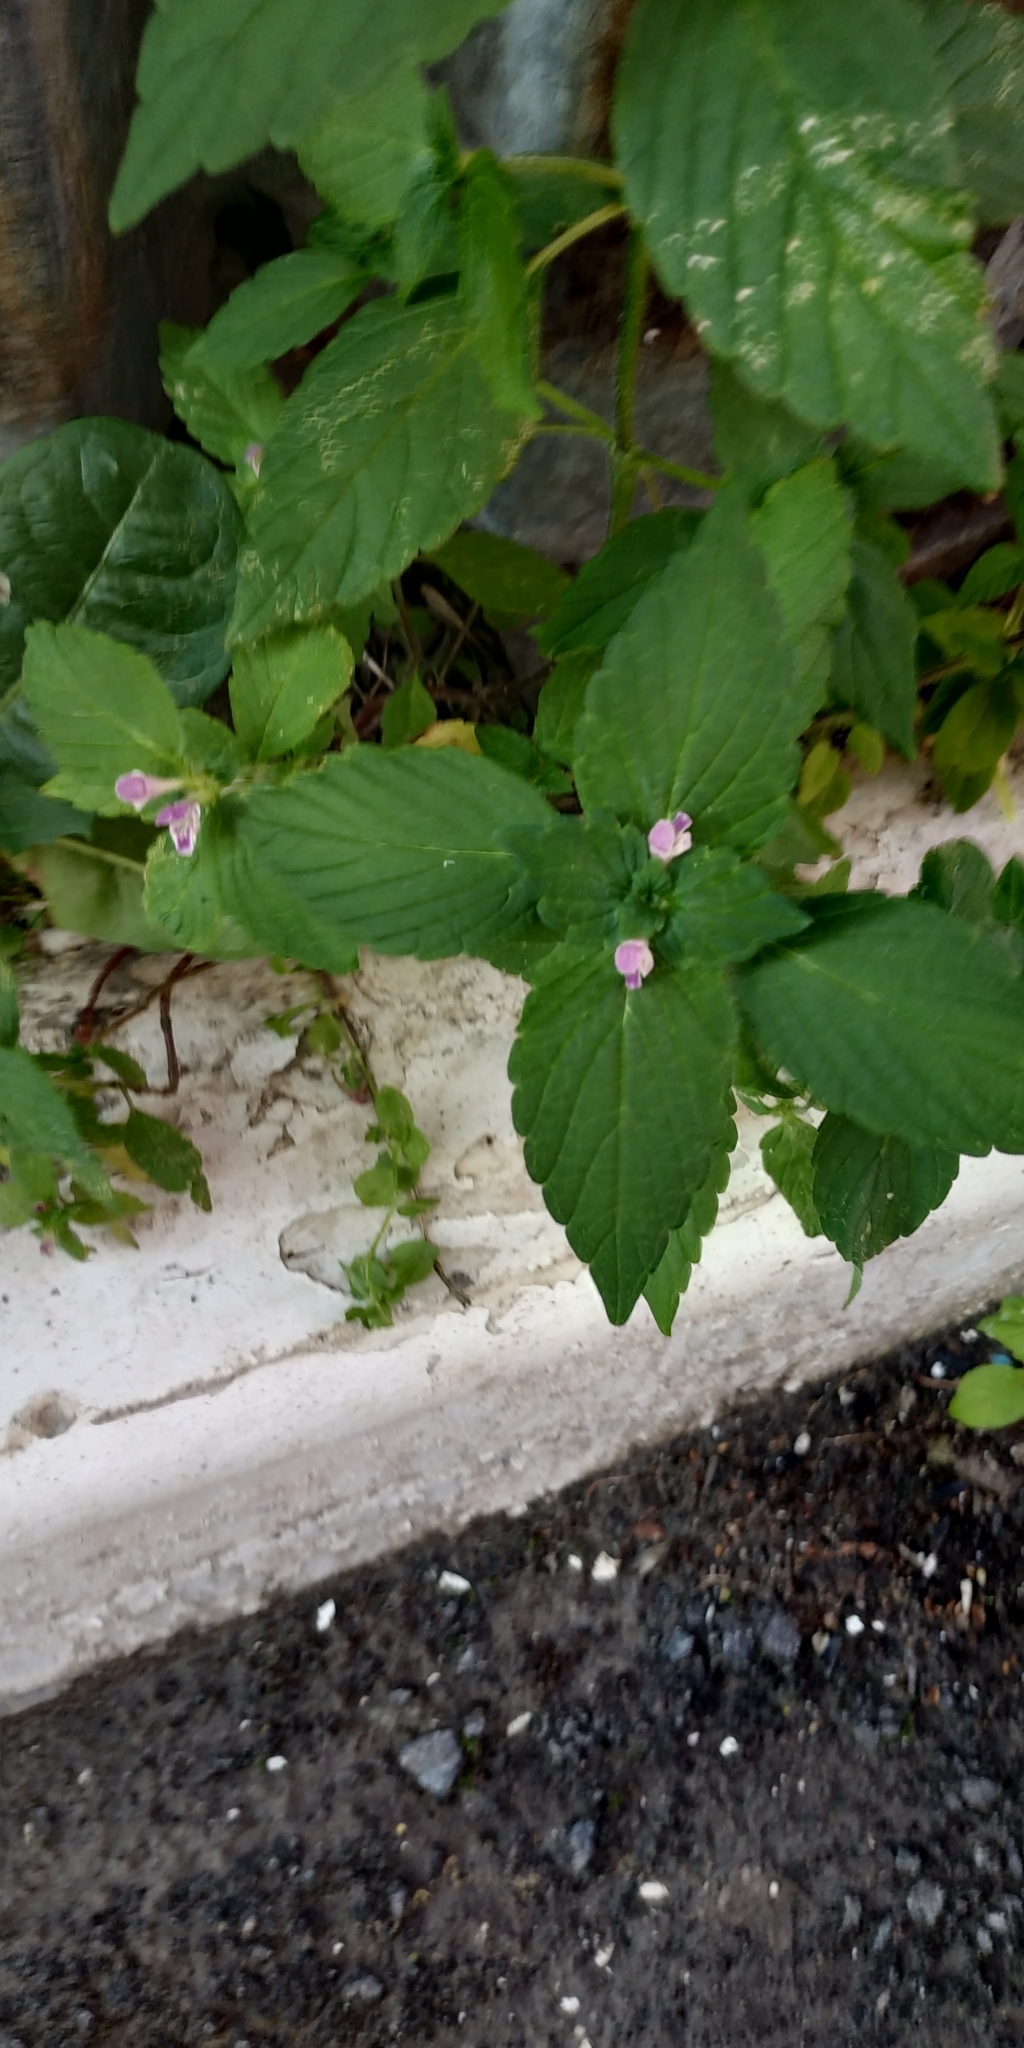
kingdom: Plantae
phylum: Tracheophyta
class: Magnoliopsida
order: Lamiales
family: Lamiaceae
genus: Galeopsis
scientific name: Galeopsis bifida
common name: Bifid hemp-nettle
